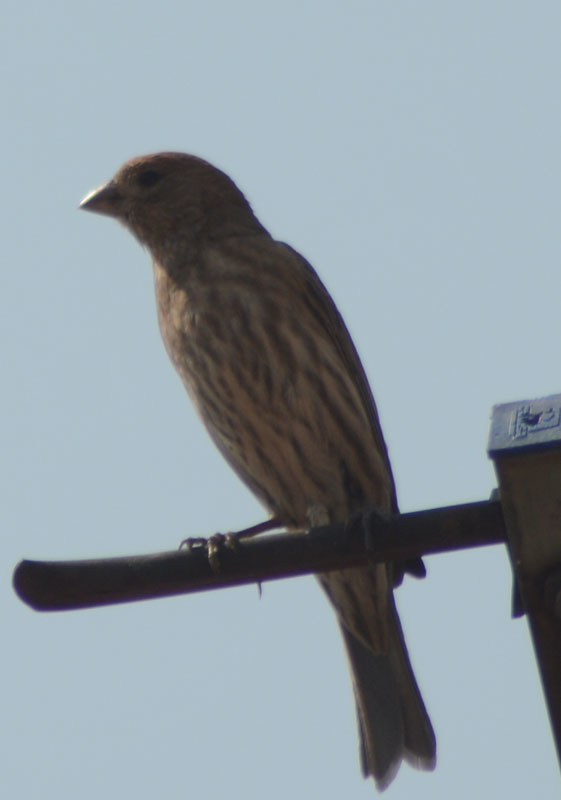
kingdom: Animalia
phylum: Chordata
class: Aves
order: Passeriformes
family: Fringillidae
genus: Haemorhous
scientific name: Haemorhous mexicanus
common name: House finch
